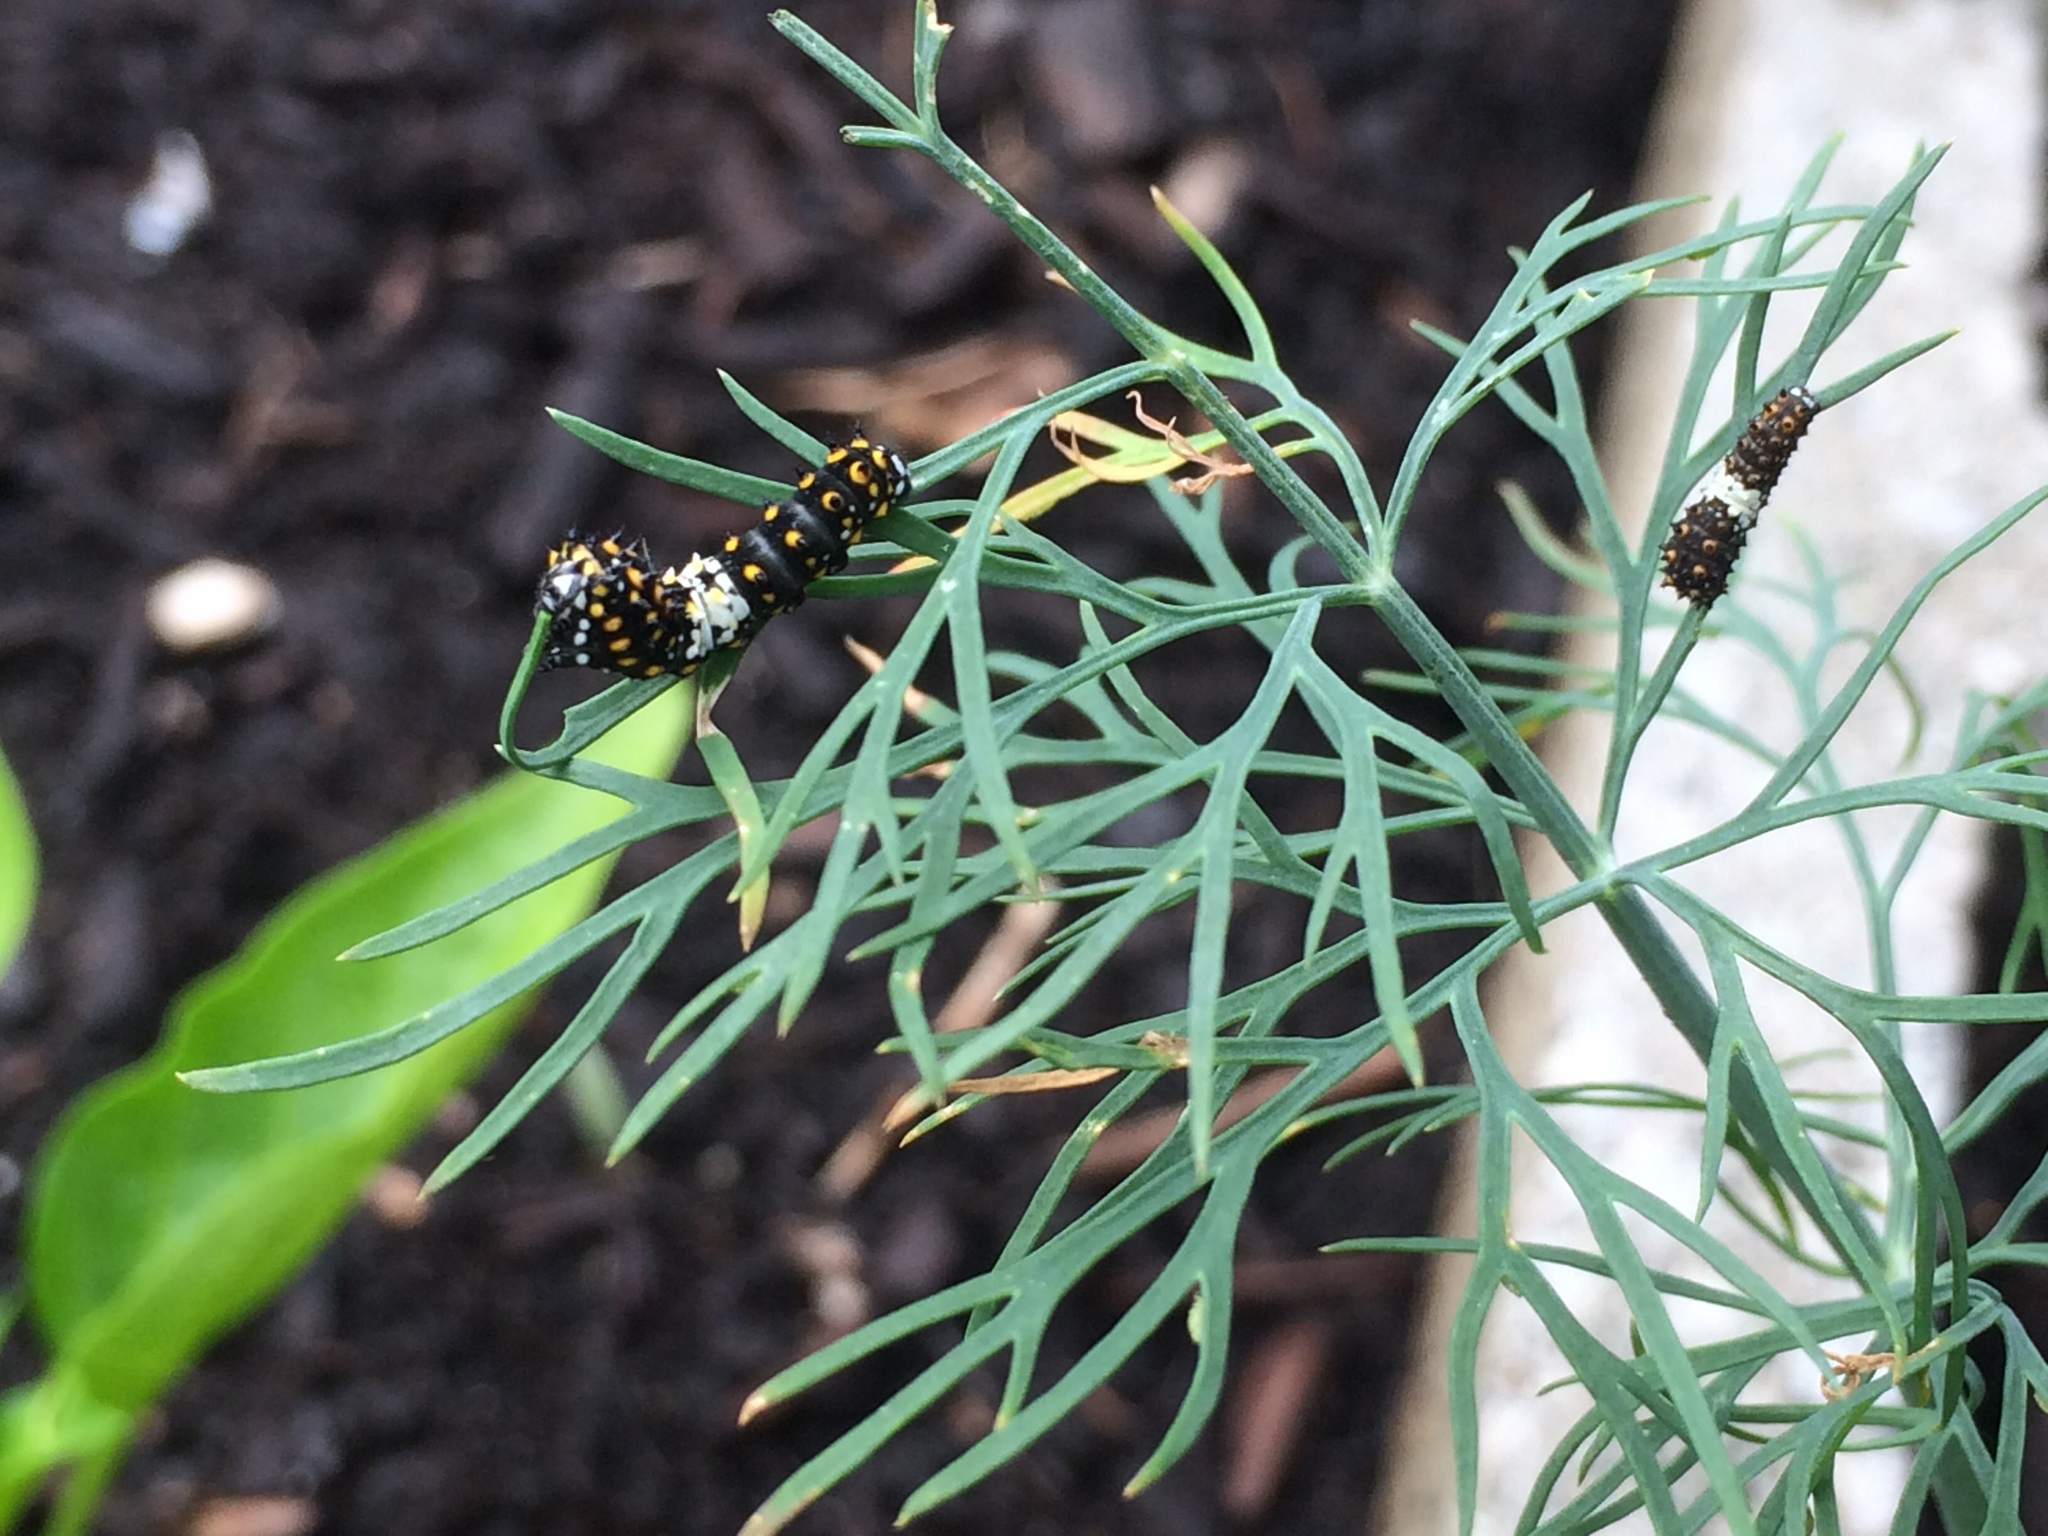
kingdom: Animalia
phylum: Arthropoda
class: Insecta
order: Lepidoptera
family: Papilionidae
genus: Papilio
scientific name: Papilio polyxenes
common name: Black swallowtail
